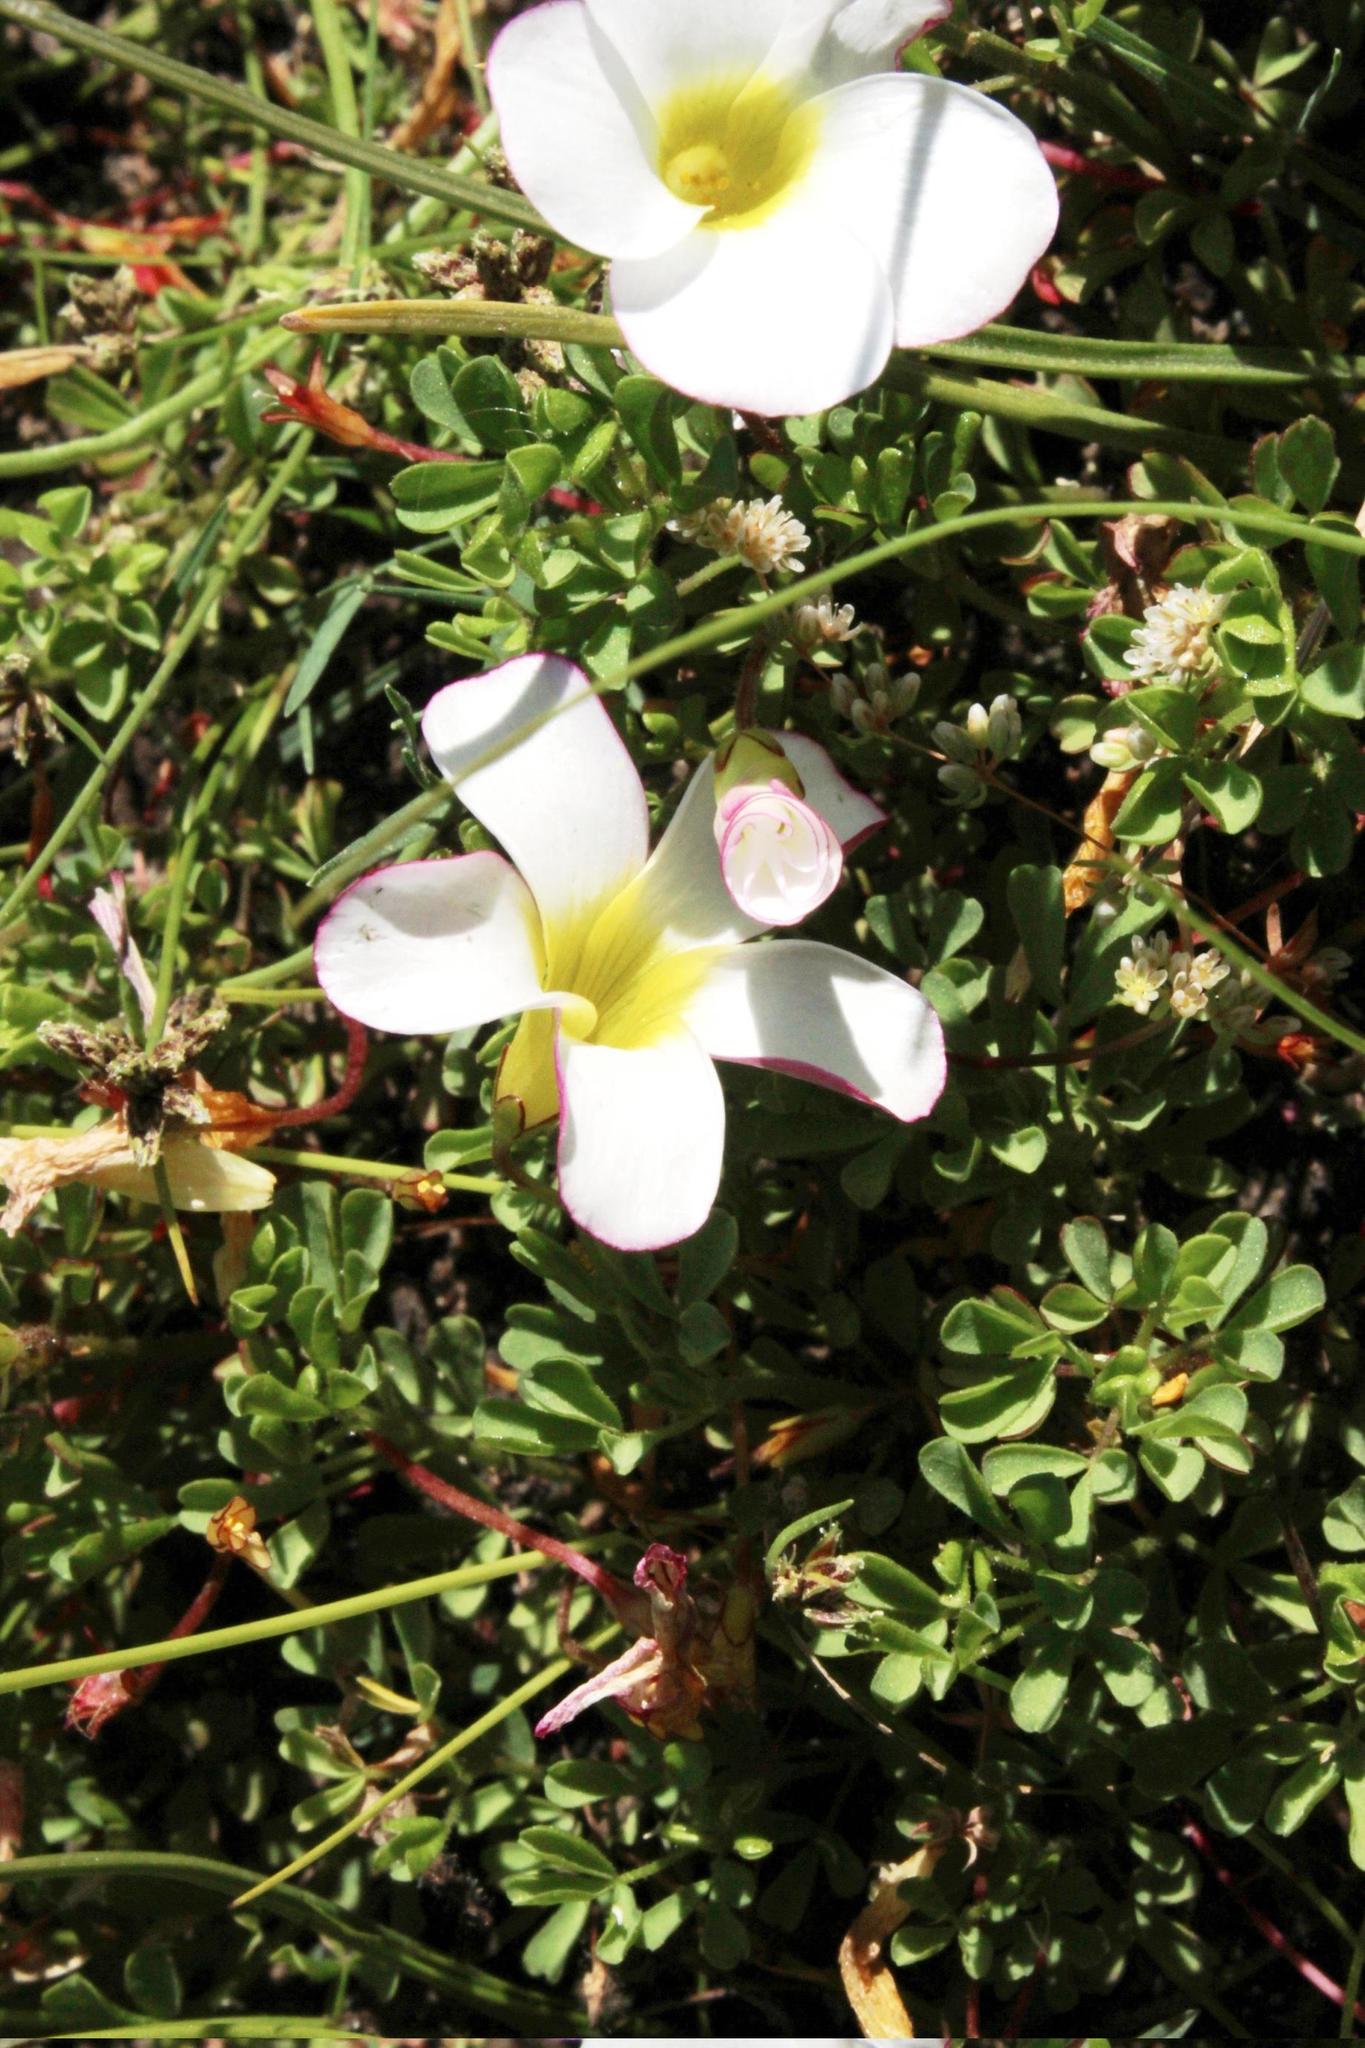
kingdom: Plantae
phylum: Tracheophyta
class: Magnoliopsida
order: Oxalidales
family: Oxalidaceae
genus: Oxalis
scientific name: Oxalis recticaulis
